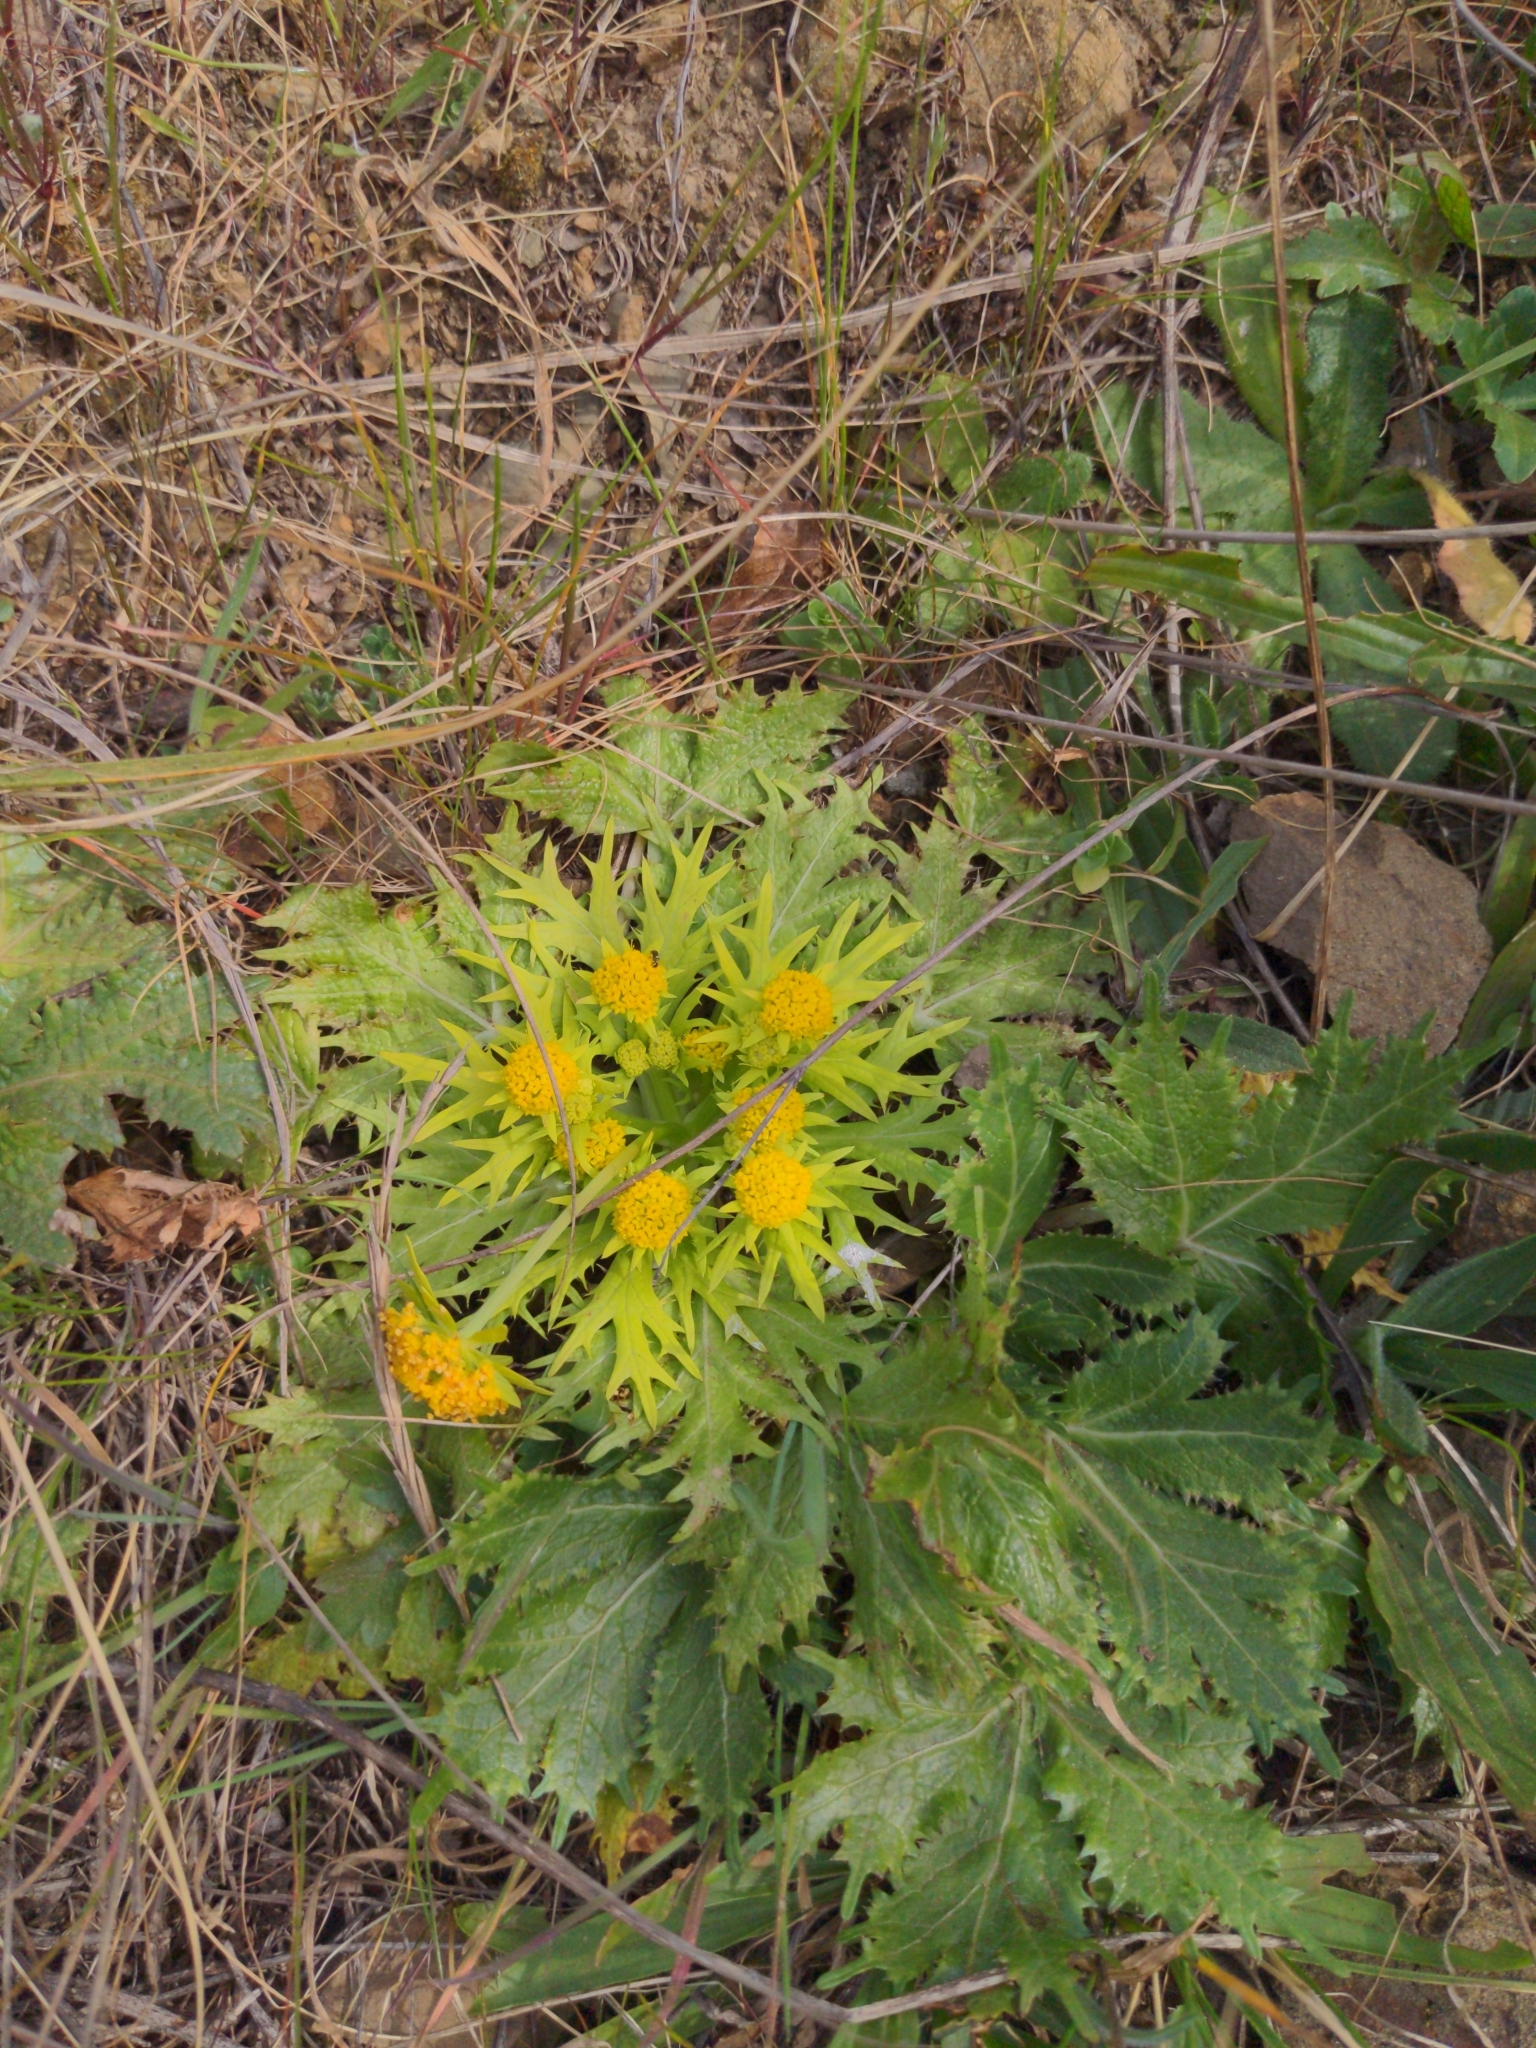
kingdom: Plantae
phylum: Tracheophyta
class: Magnoliopsida
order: Apiales
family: Apiaceae
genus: Sanicula
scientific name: Sanicula arctopoides
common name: Footsteps-of-spring
